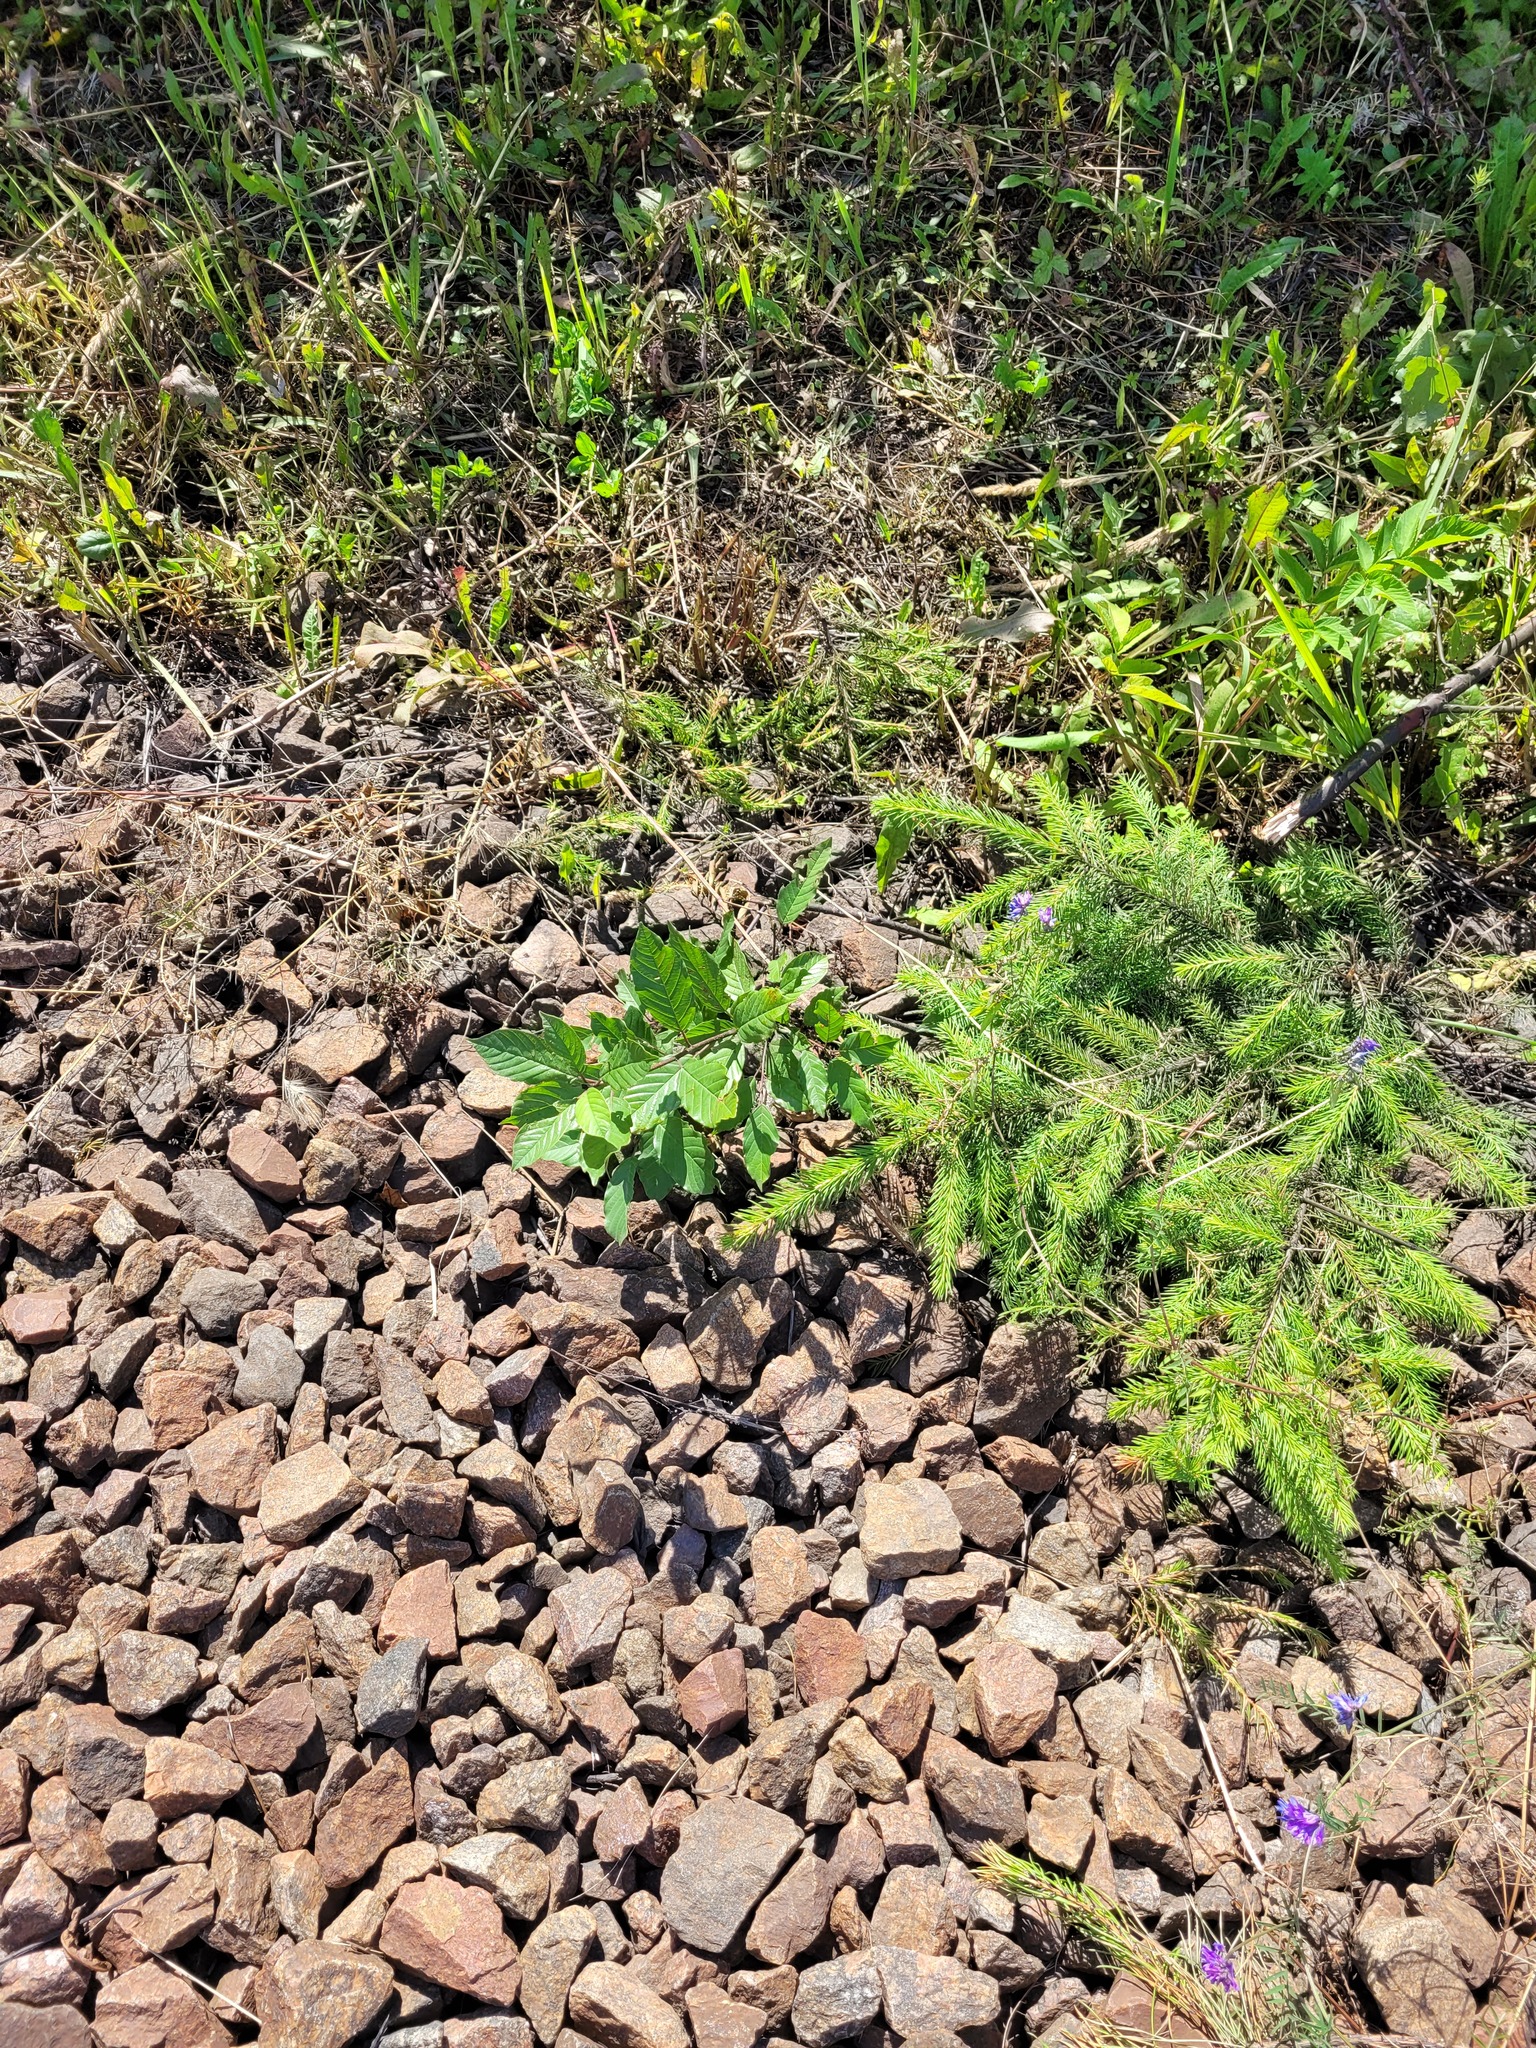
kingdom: Plantae
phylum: Tracheophyta
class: Magnoliopsida
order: Rosales
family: Rhamnaceae
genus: Frangula
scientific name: Frangula alnus
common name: Alder buckthorn
